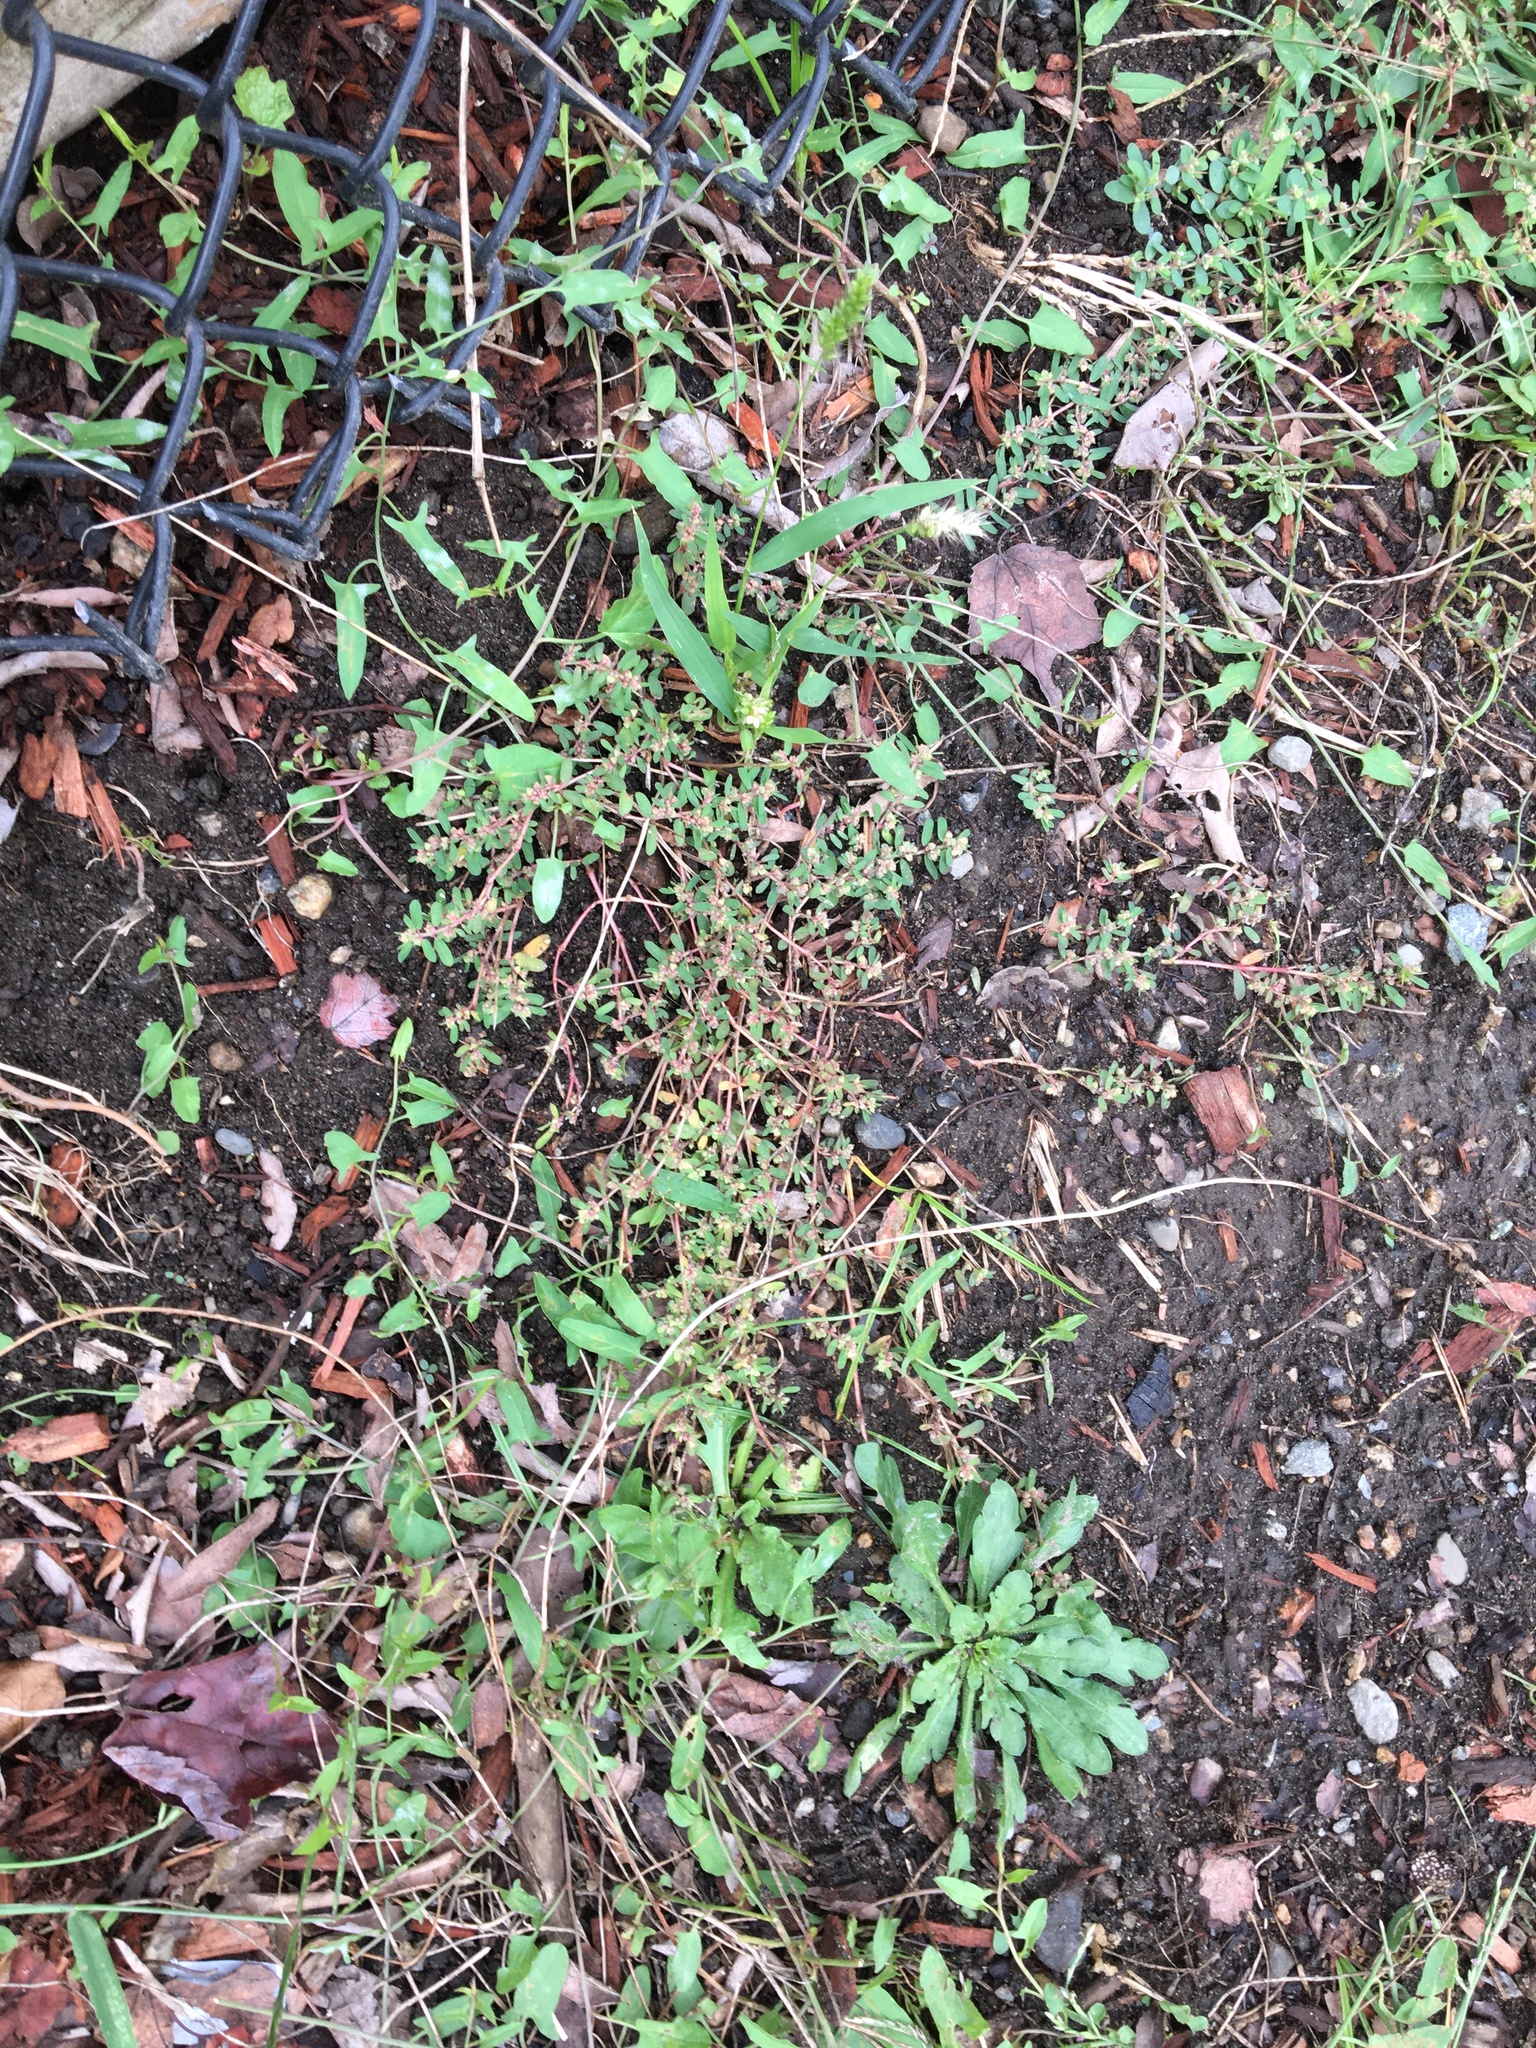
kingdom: Plantae
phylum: Tracheophyta
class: Magnoliopsida
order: Malpighiales
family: Euphorbiaceae
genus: Euphorbia
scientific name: Euphorbia maculata
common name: Spotted spurge
